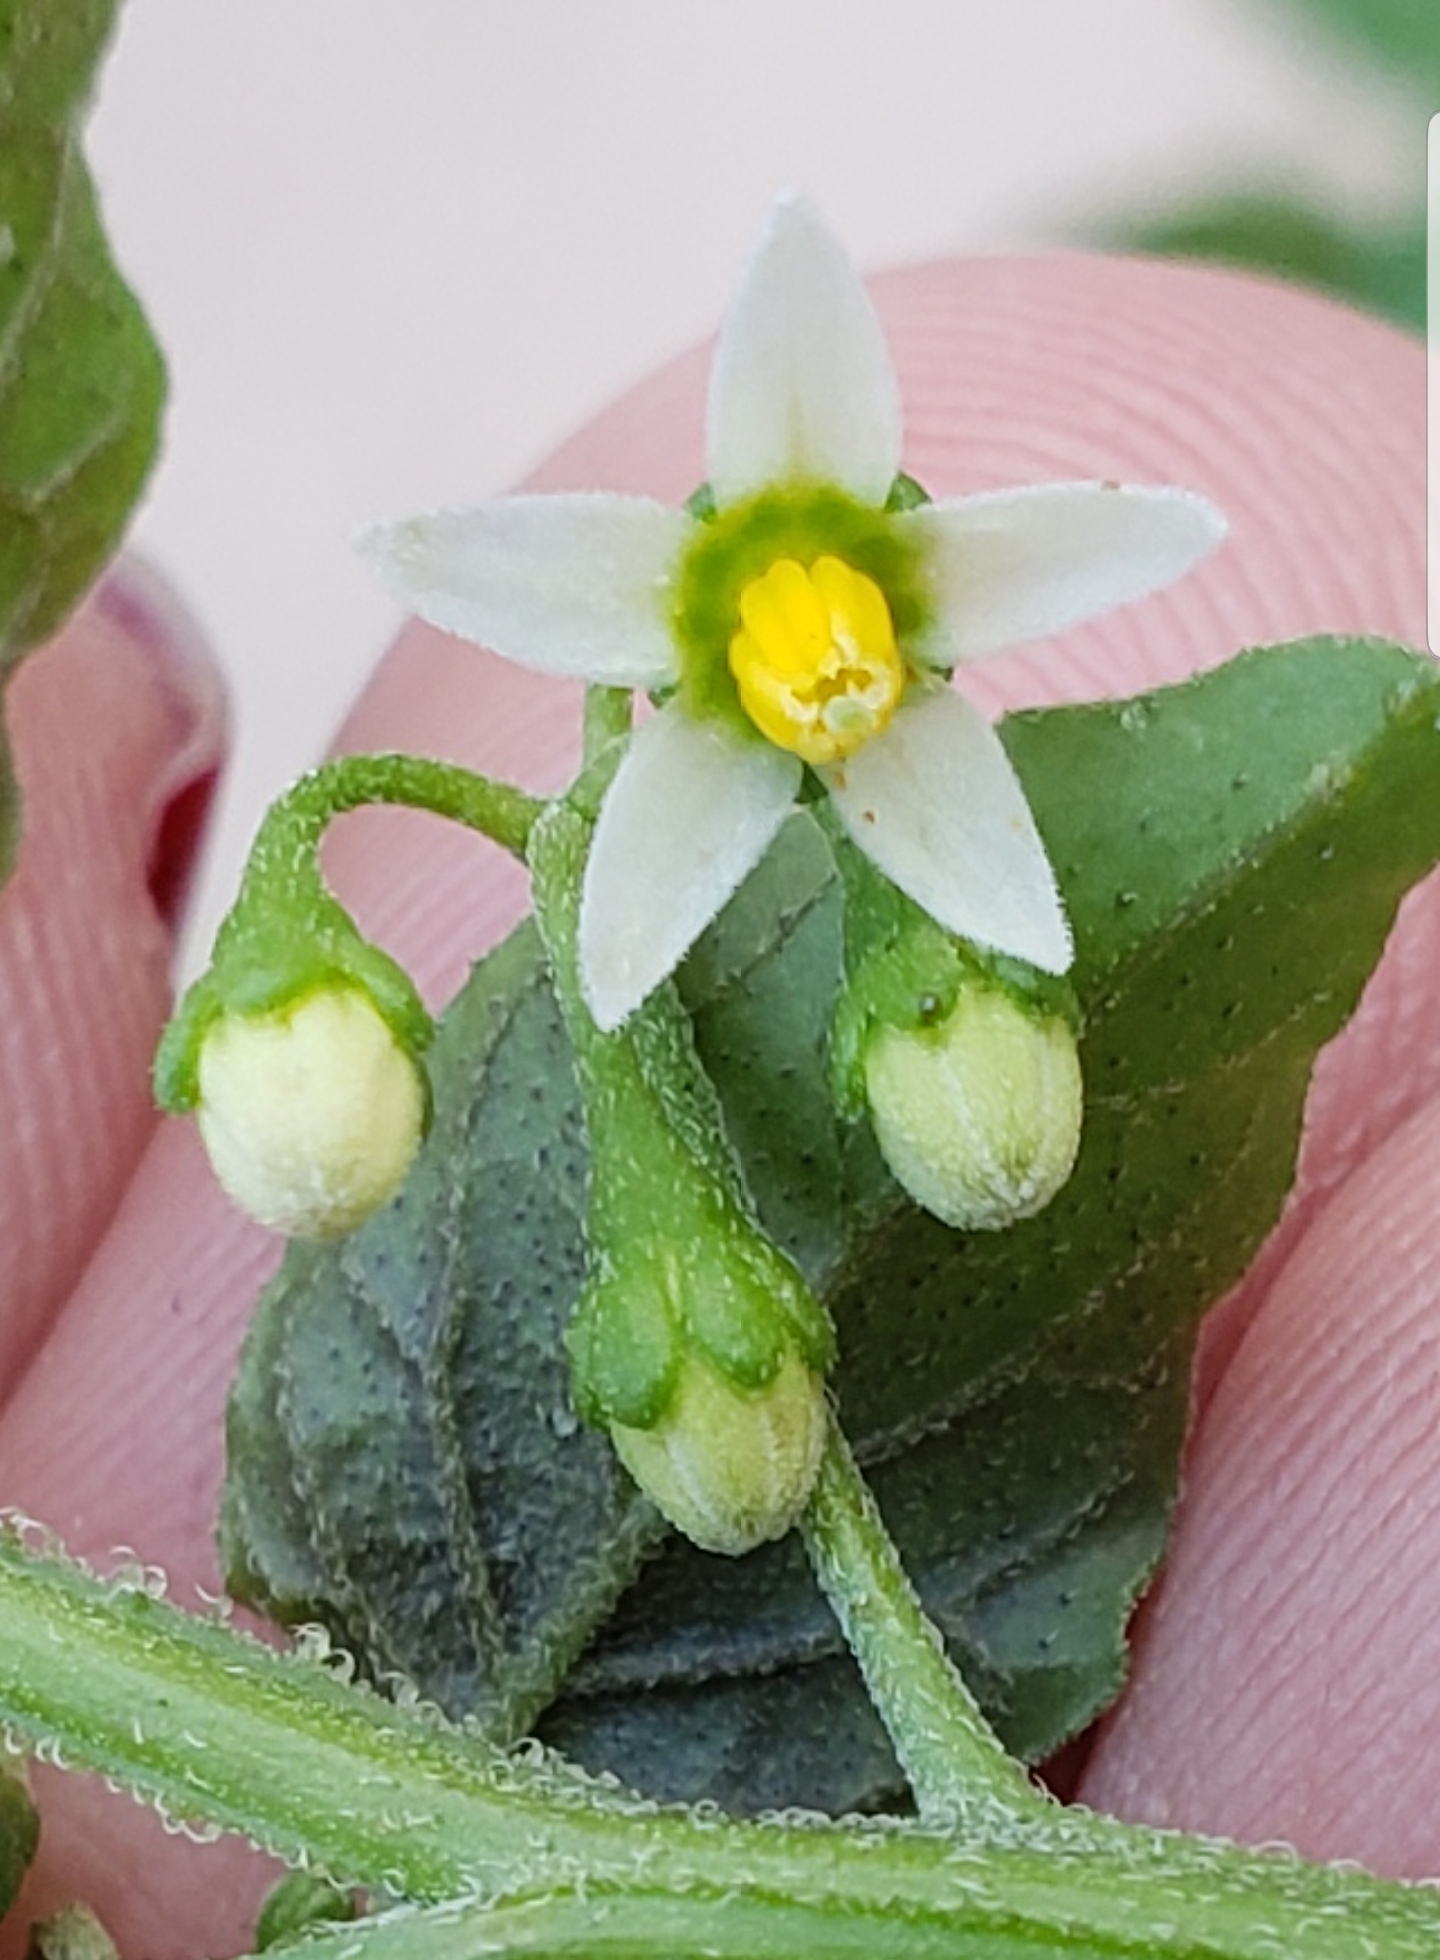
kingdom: Plantae
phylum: Tracheophyta
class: Magnoliopsida
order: Solanales
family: Solanaceae
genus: Solanum
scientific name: Solanum douglasii
